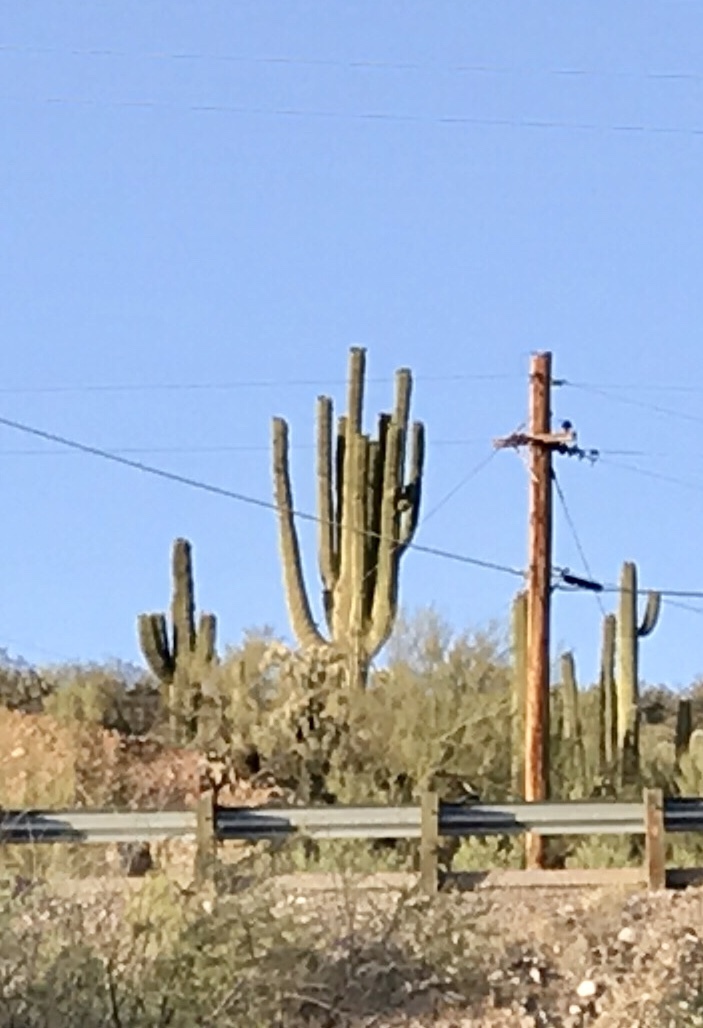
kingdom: Plantae
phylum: Tracheophyta
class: Magnoliopsida
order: Caryophyllales
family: Cactaceae
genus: Carnegiea
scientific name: Carnegiea gigantea
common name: Saguaro
